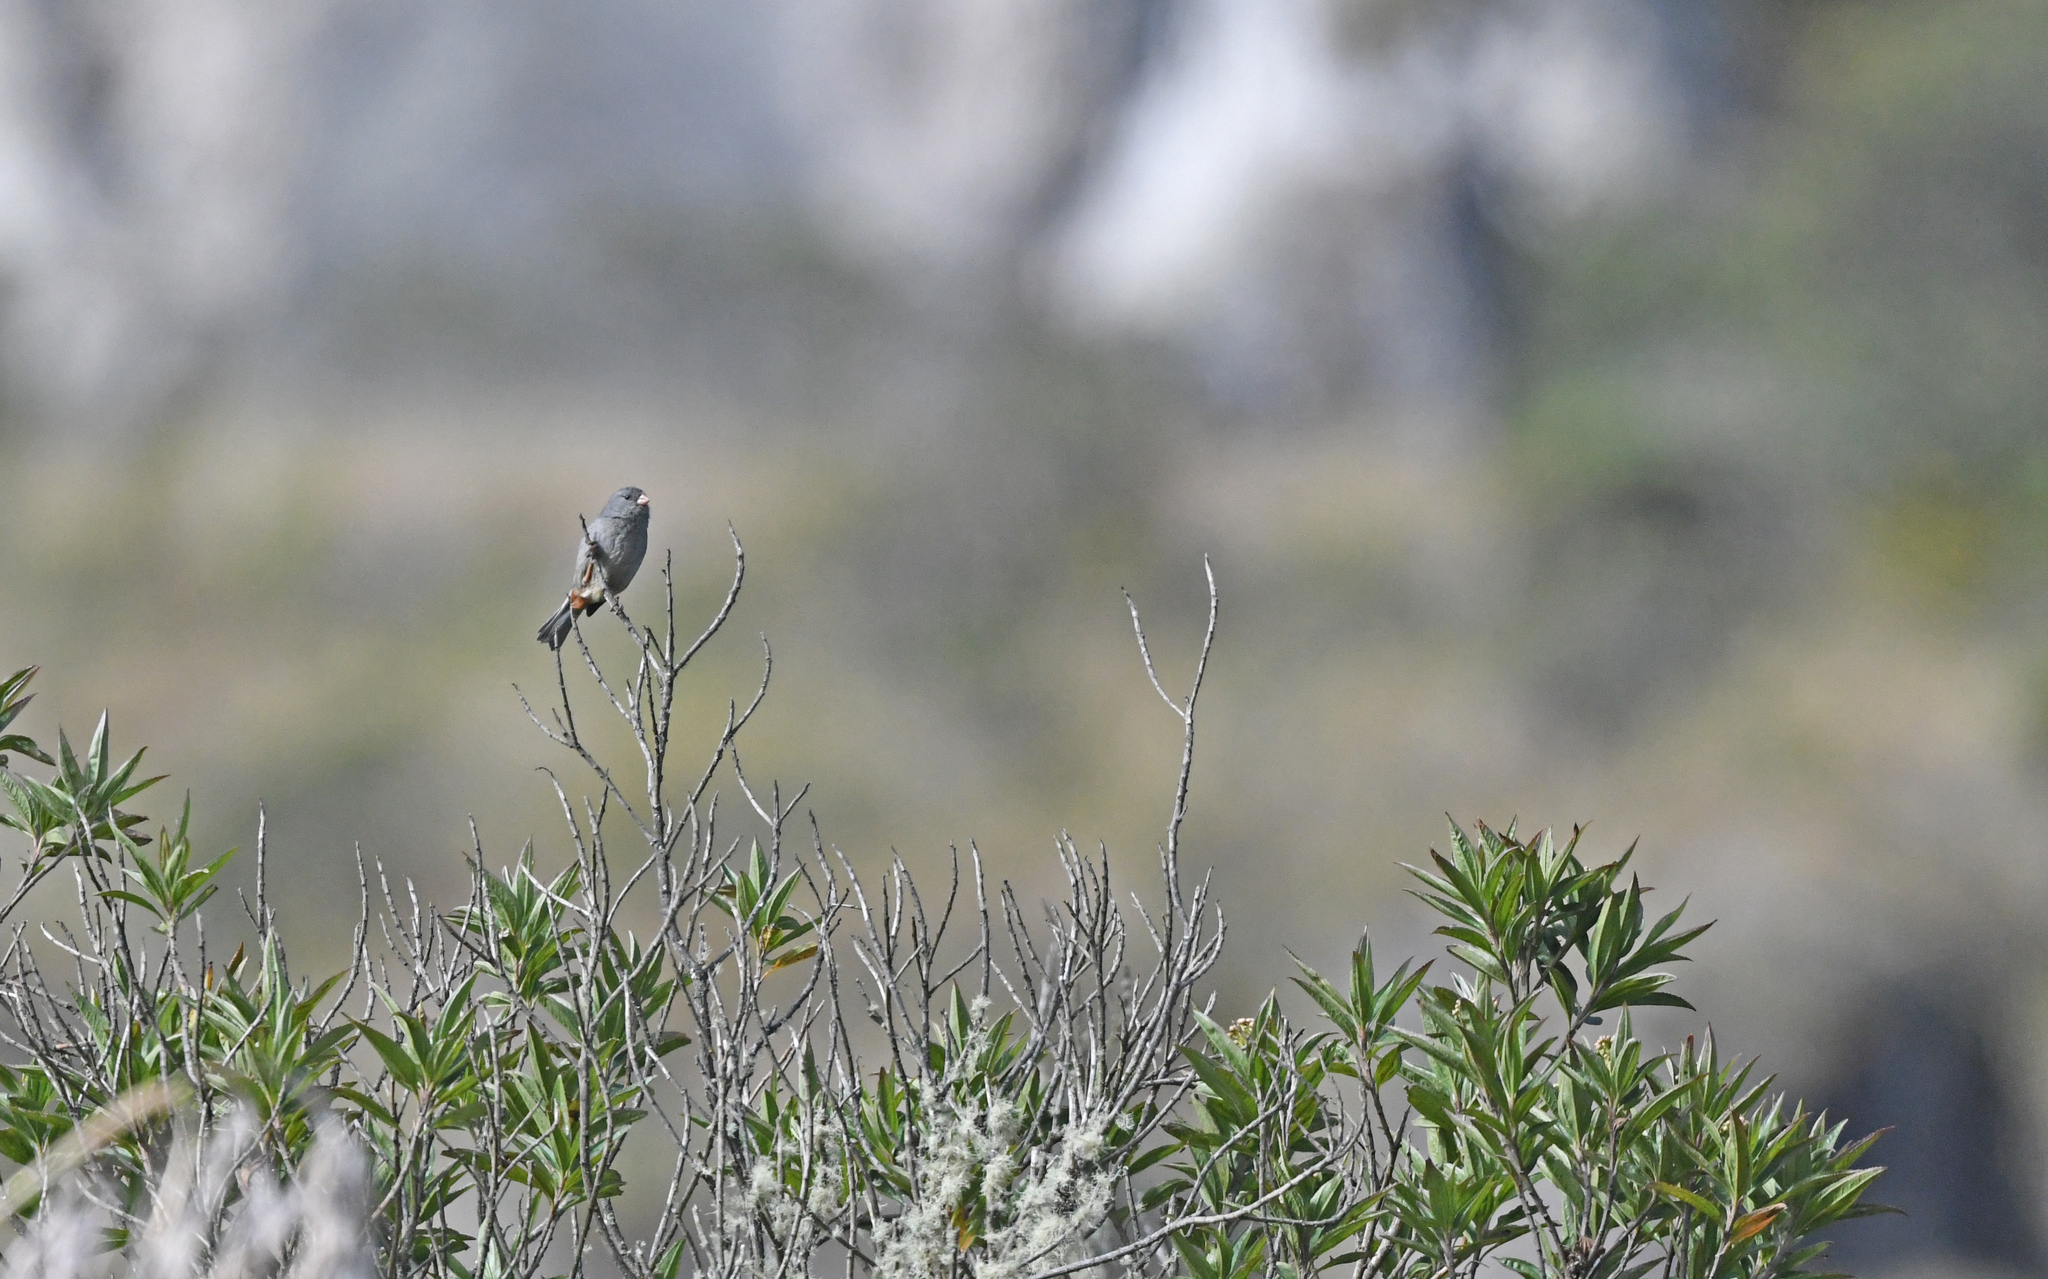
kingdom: Animalia
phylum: Chordata
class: Aves
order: Passeriformes
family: Thraupidae
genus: Catamenia
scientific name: Catamenia homochroa
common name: Paramo seedeater
